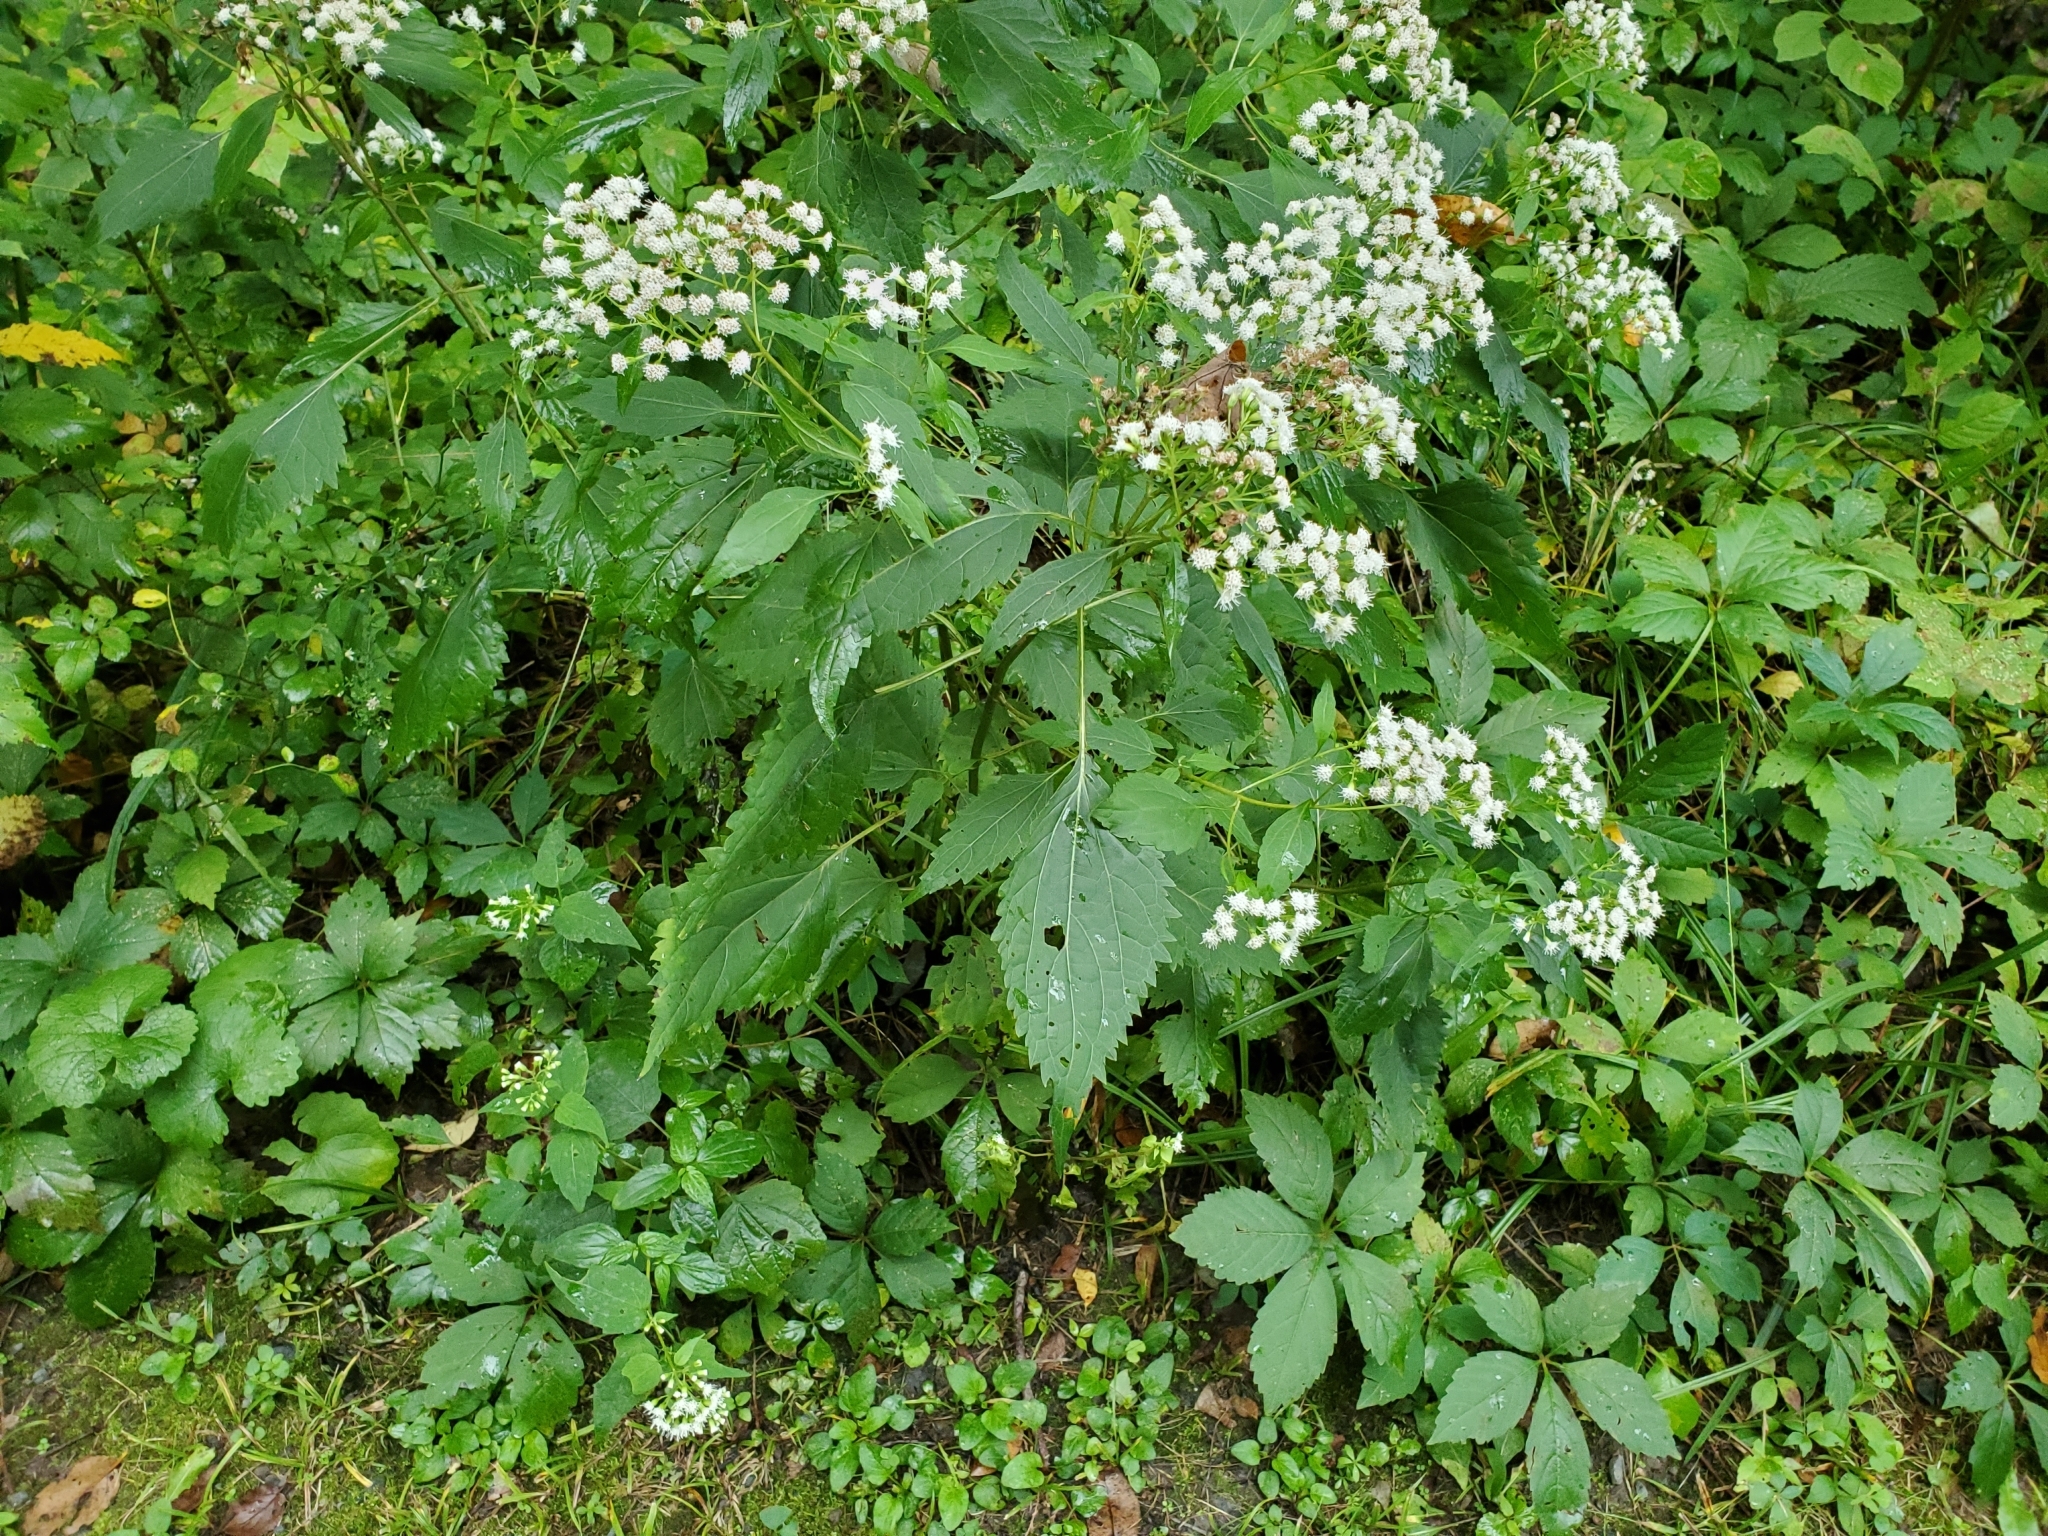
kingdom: Plantae
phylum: Tracheophyta
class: Magnoliopsida
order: Asterales
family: Asteraceae
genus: Ageratina
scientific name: Ageratina altissima
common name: White snakeroot
